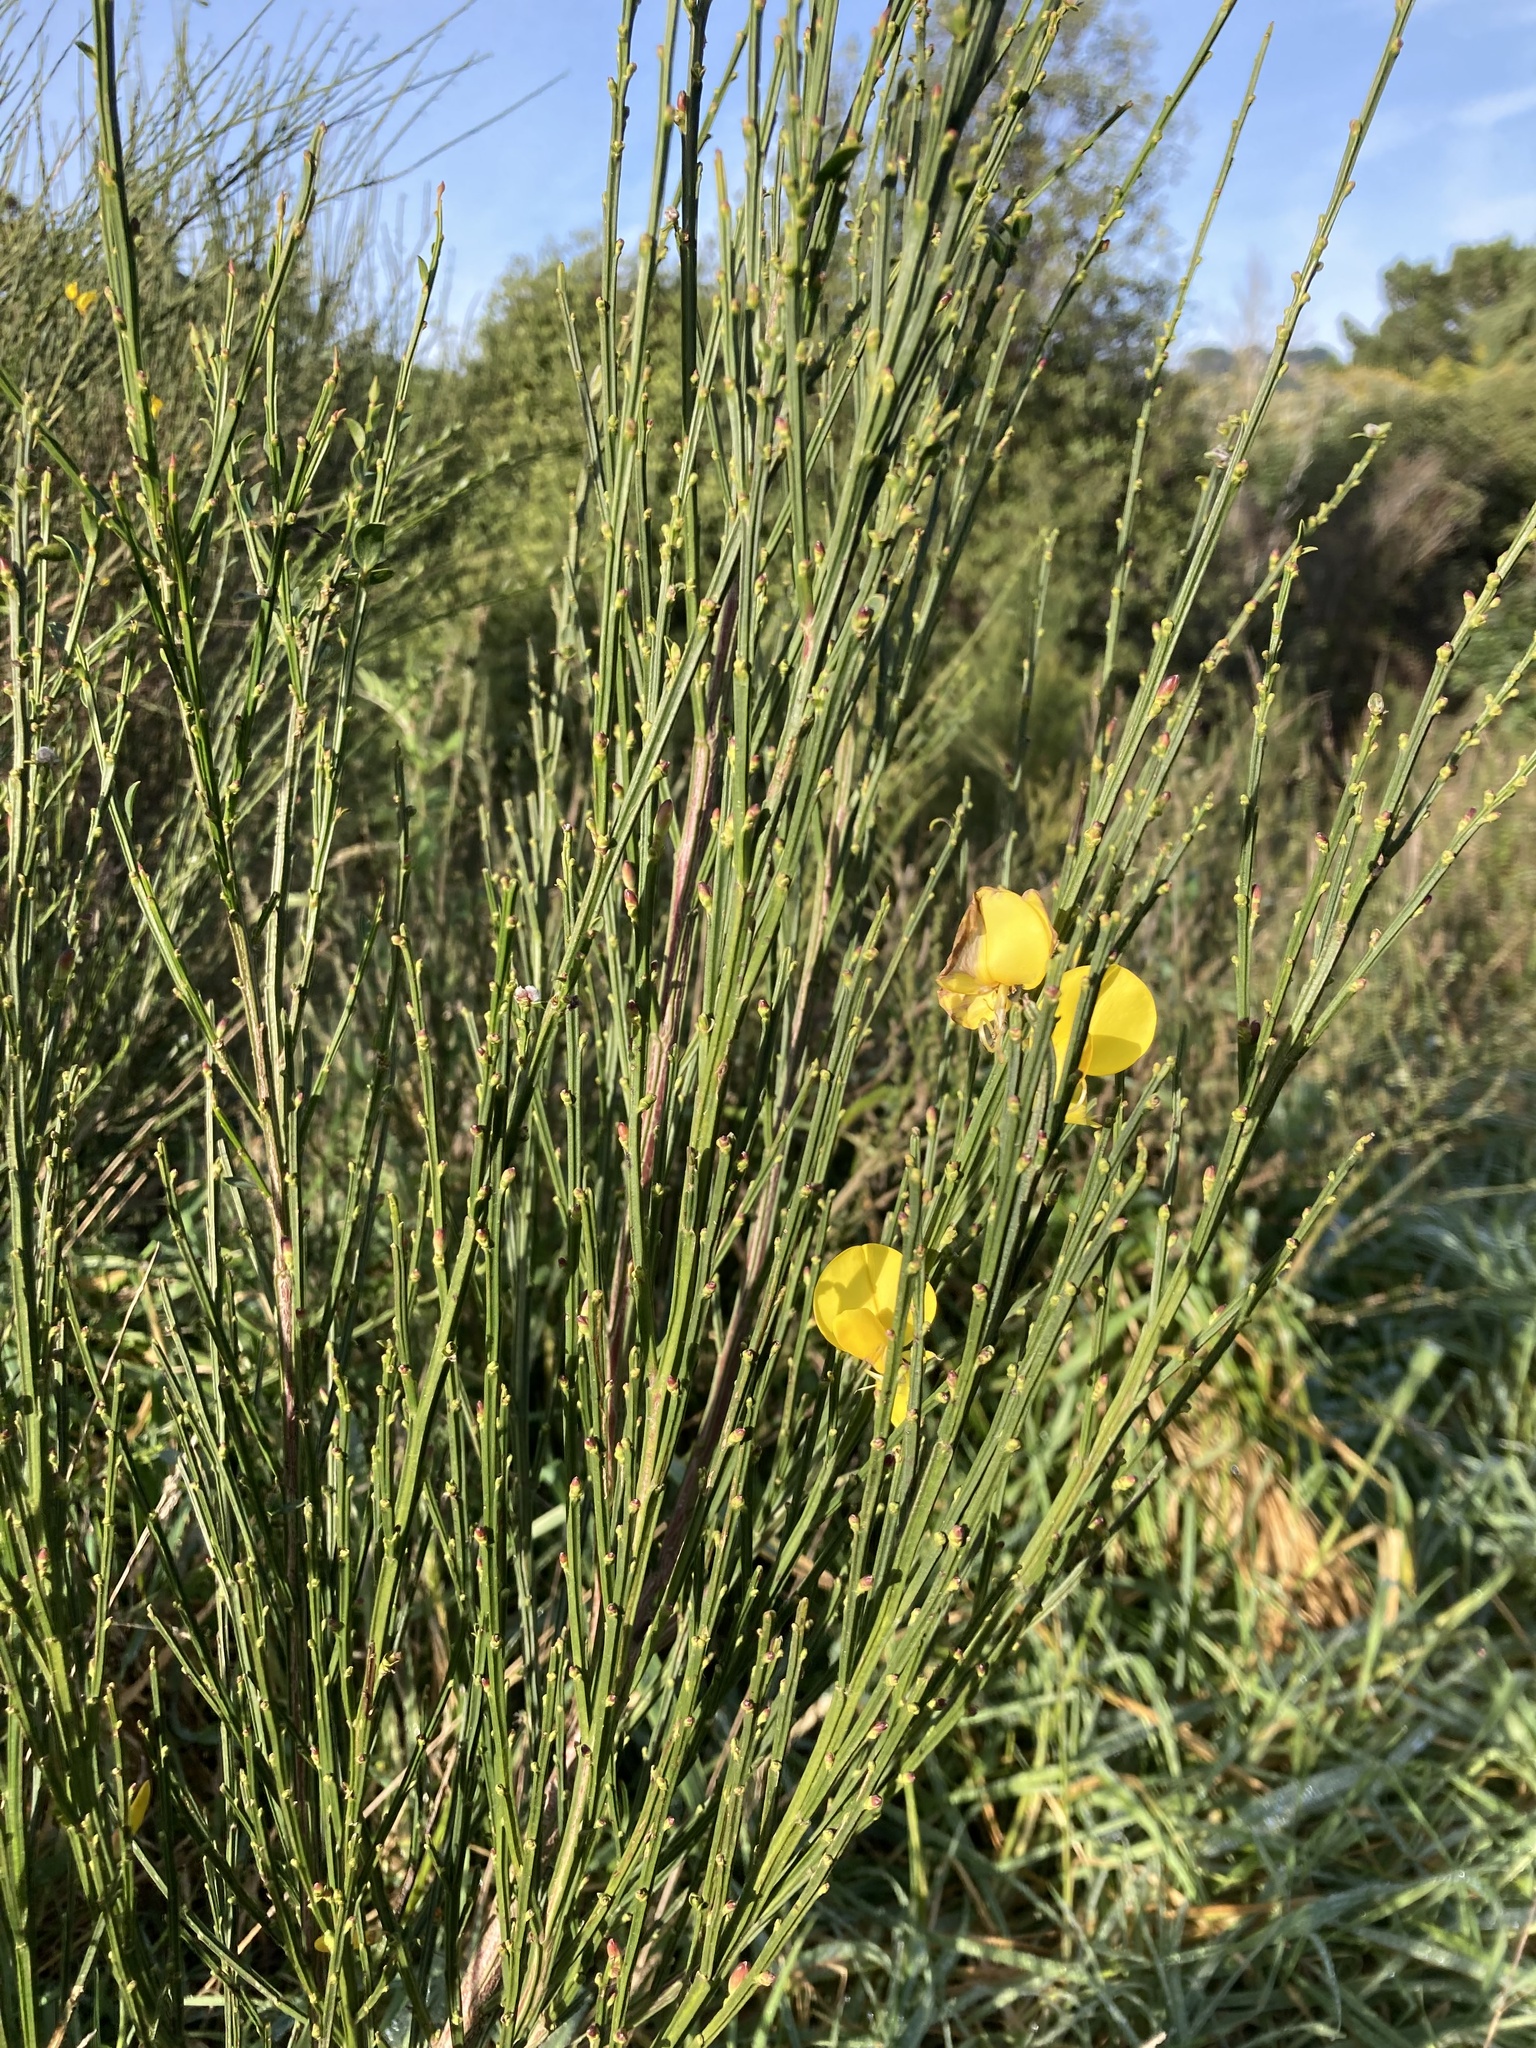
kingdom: Plantae
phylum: Tracheophyta
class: Magnoliopsida
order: Fabales
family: Fabaceae
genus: Cytisus
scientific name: Cytisus scoparius
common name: Scotch broom
